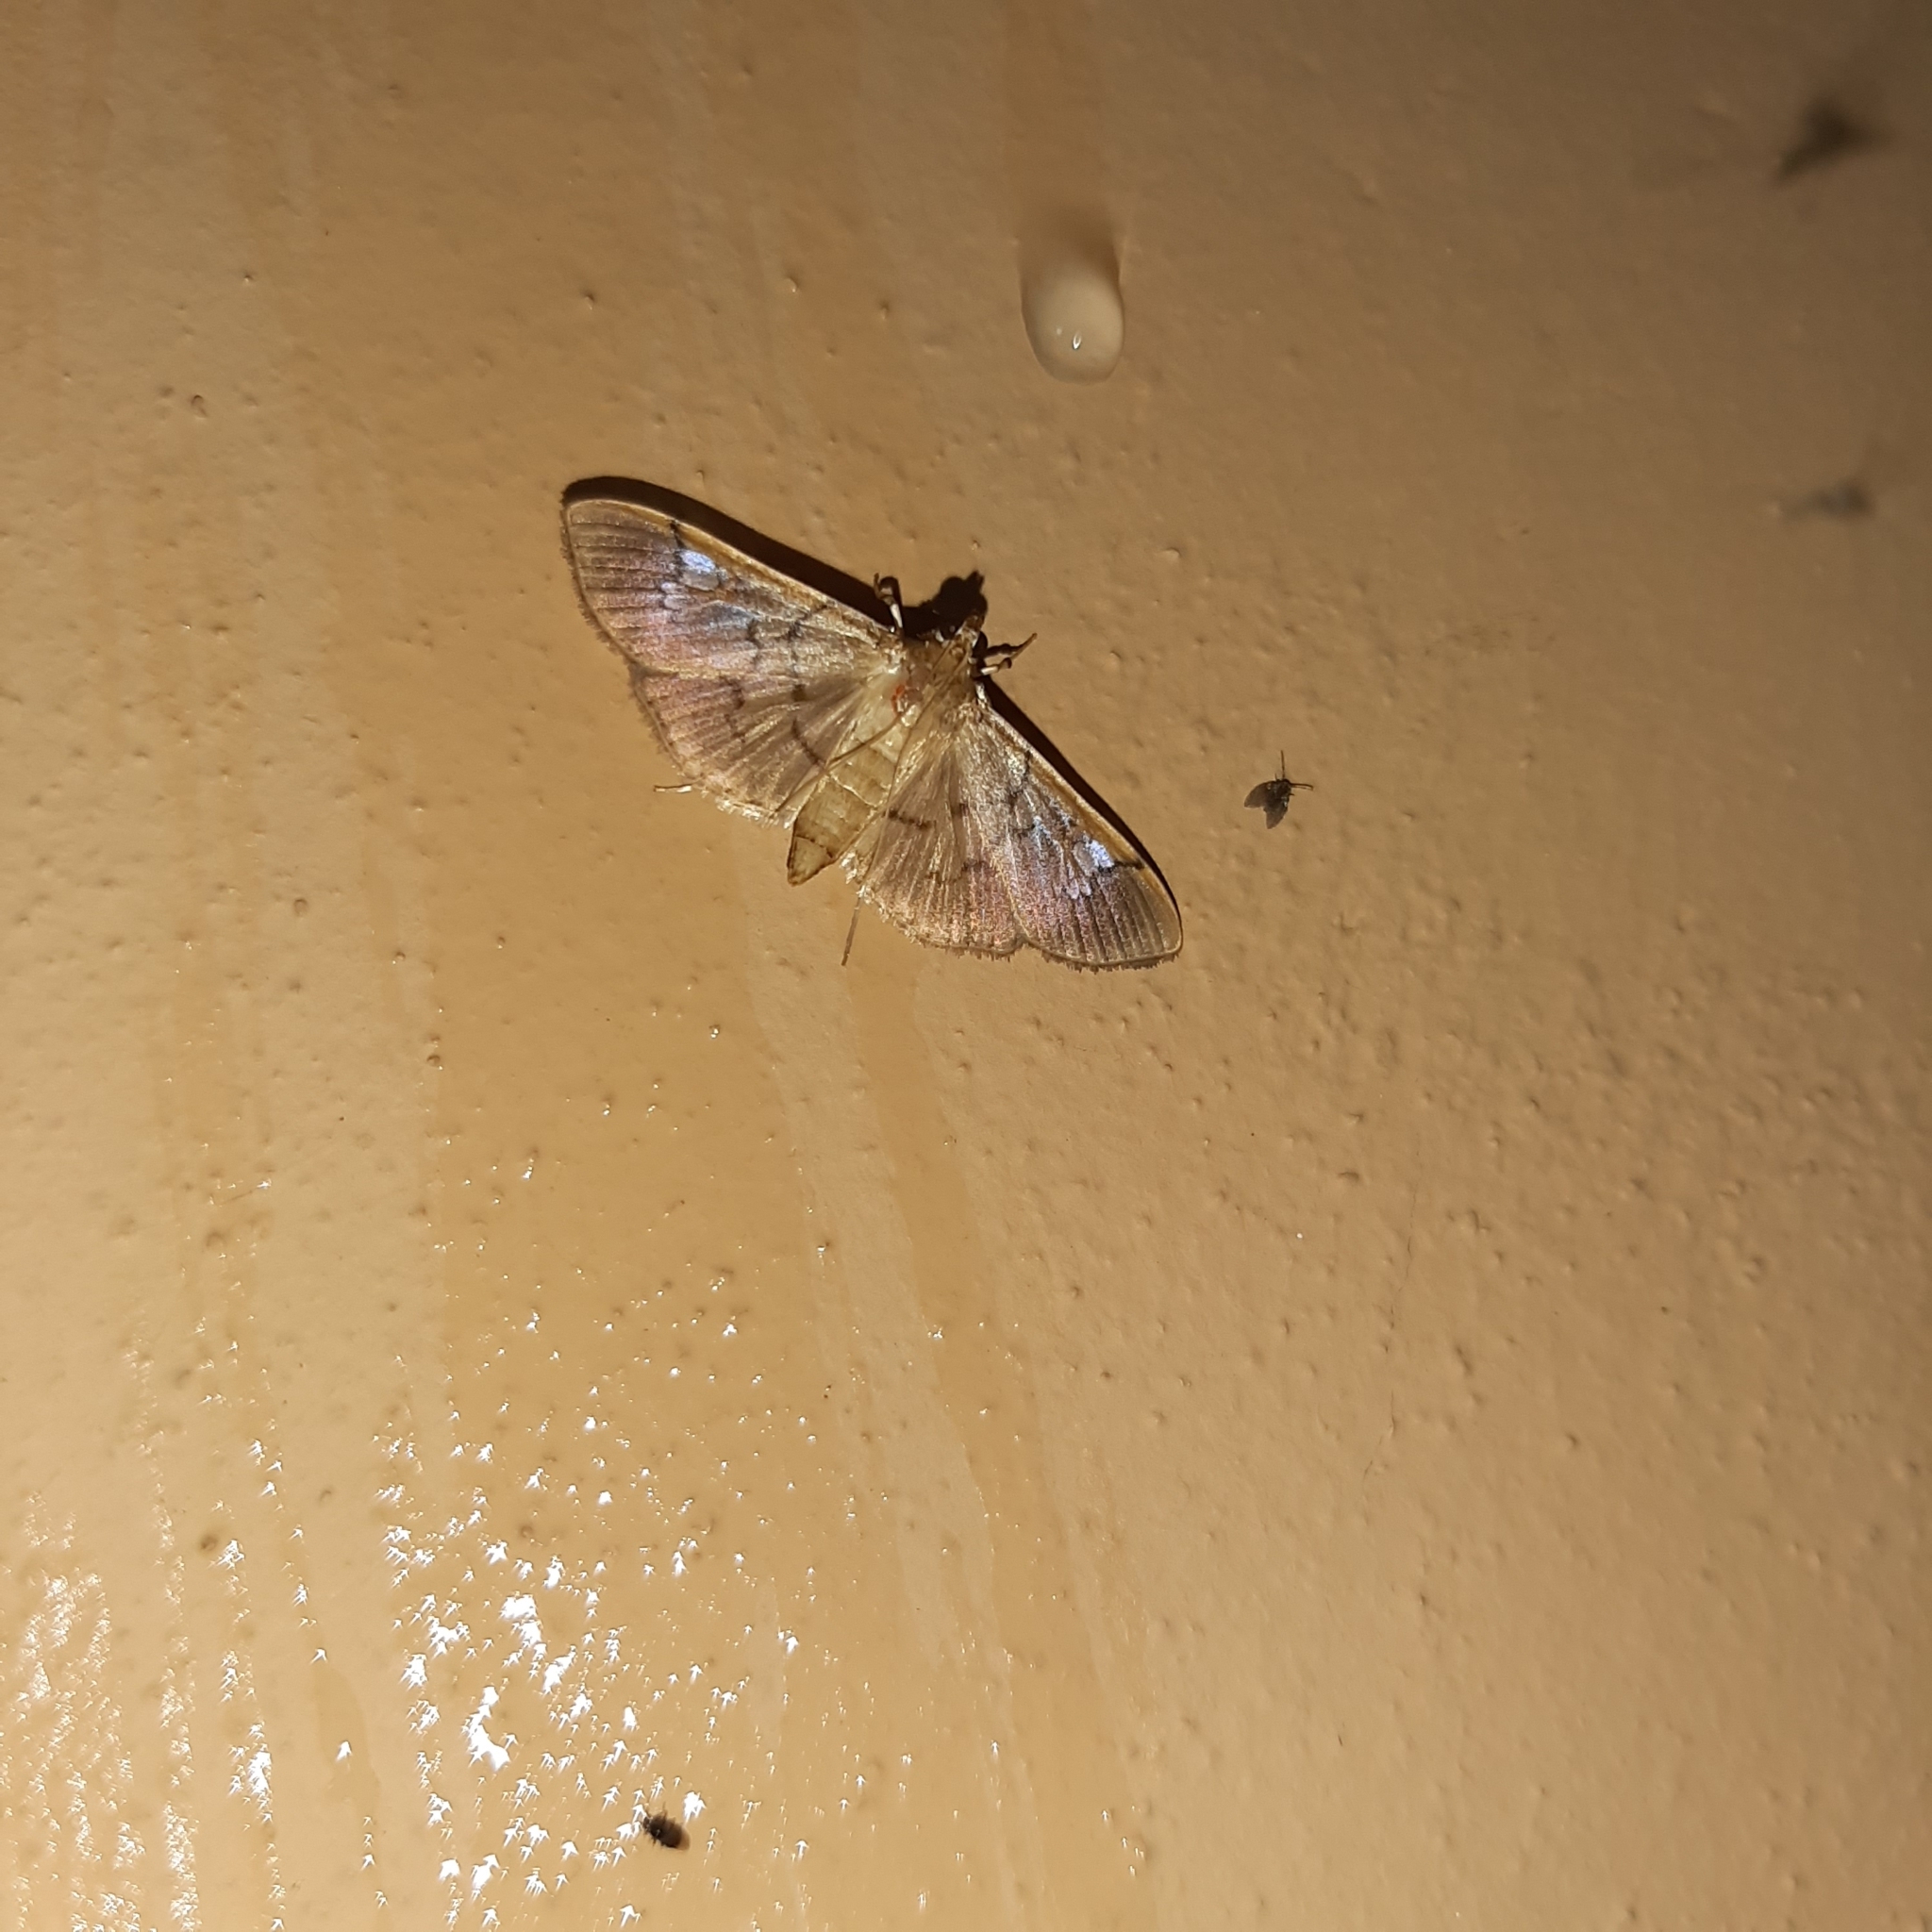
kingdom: Animalia
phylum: Arthropoda
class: Insecta
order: Lepidoptera
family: Crambidae
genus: Microthyris
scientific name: Microthyris prolongalis
